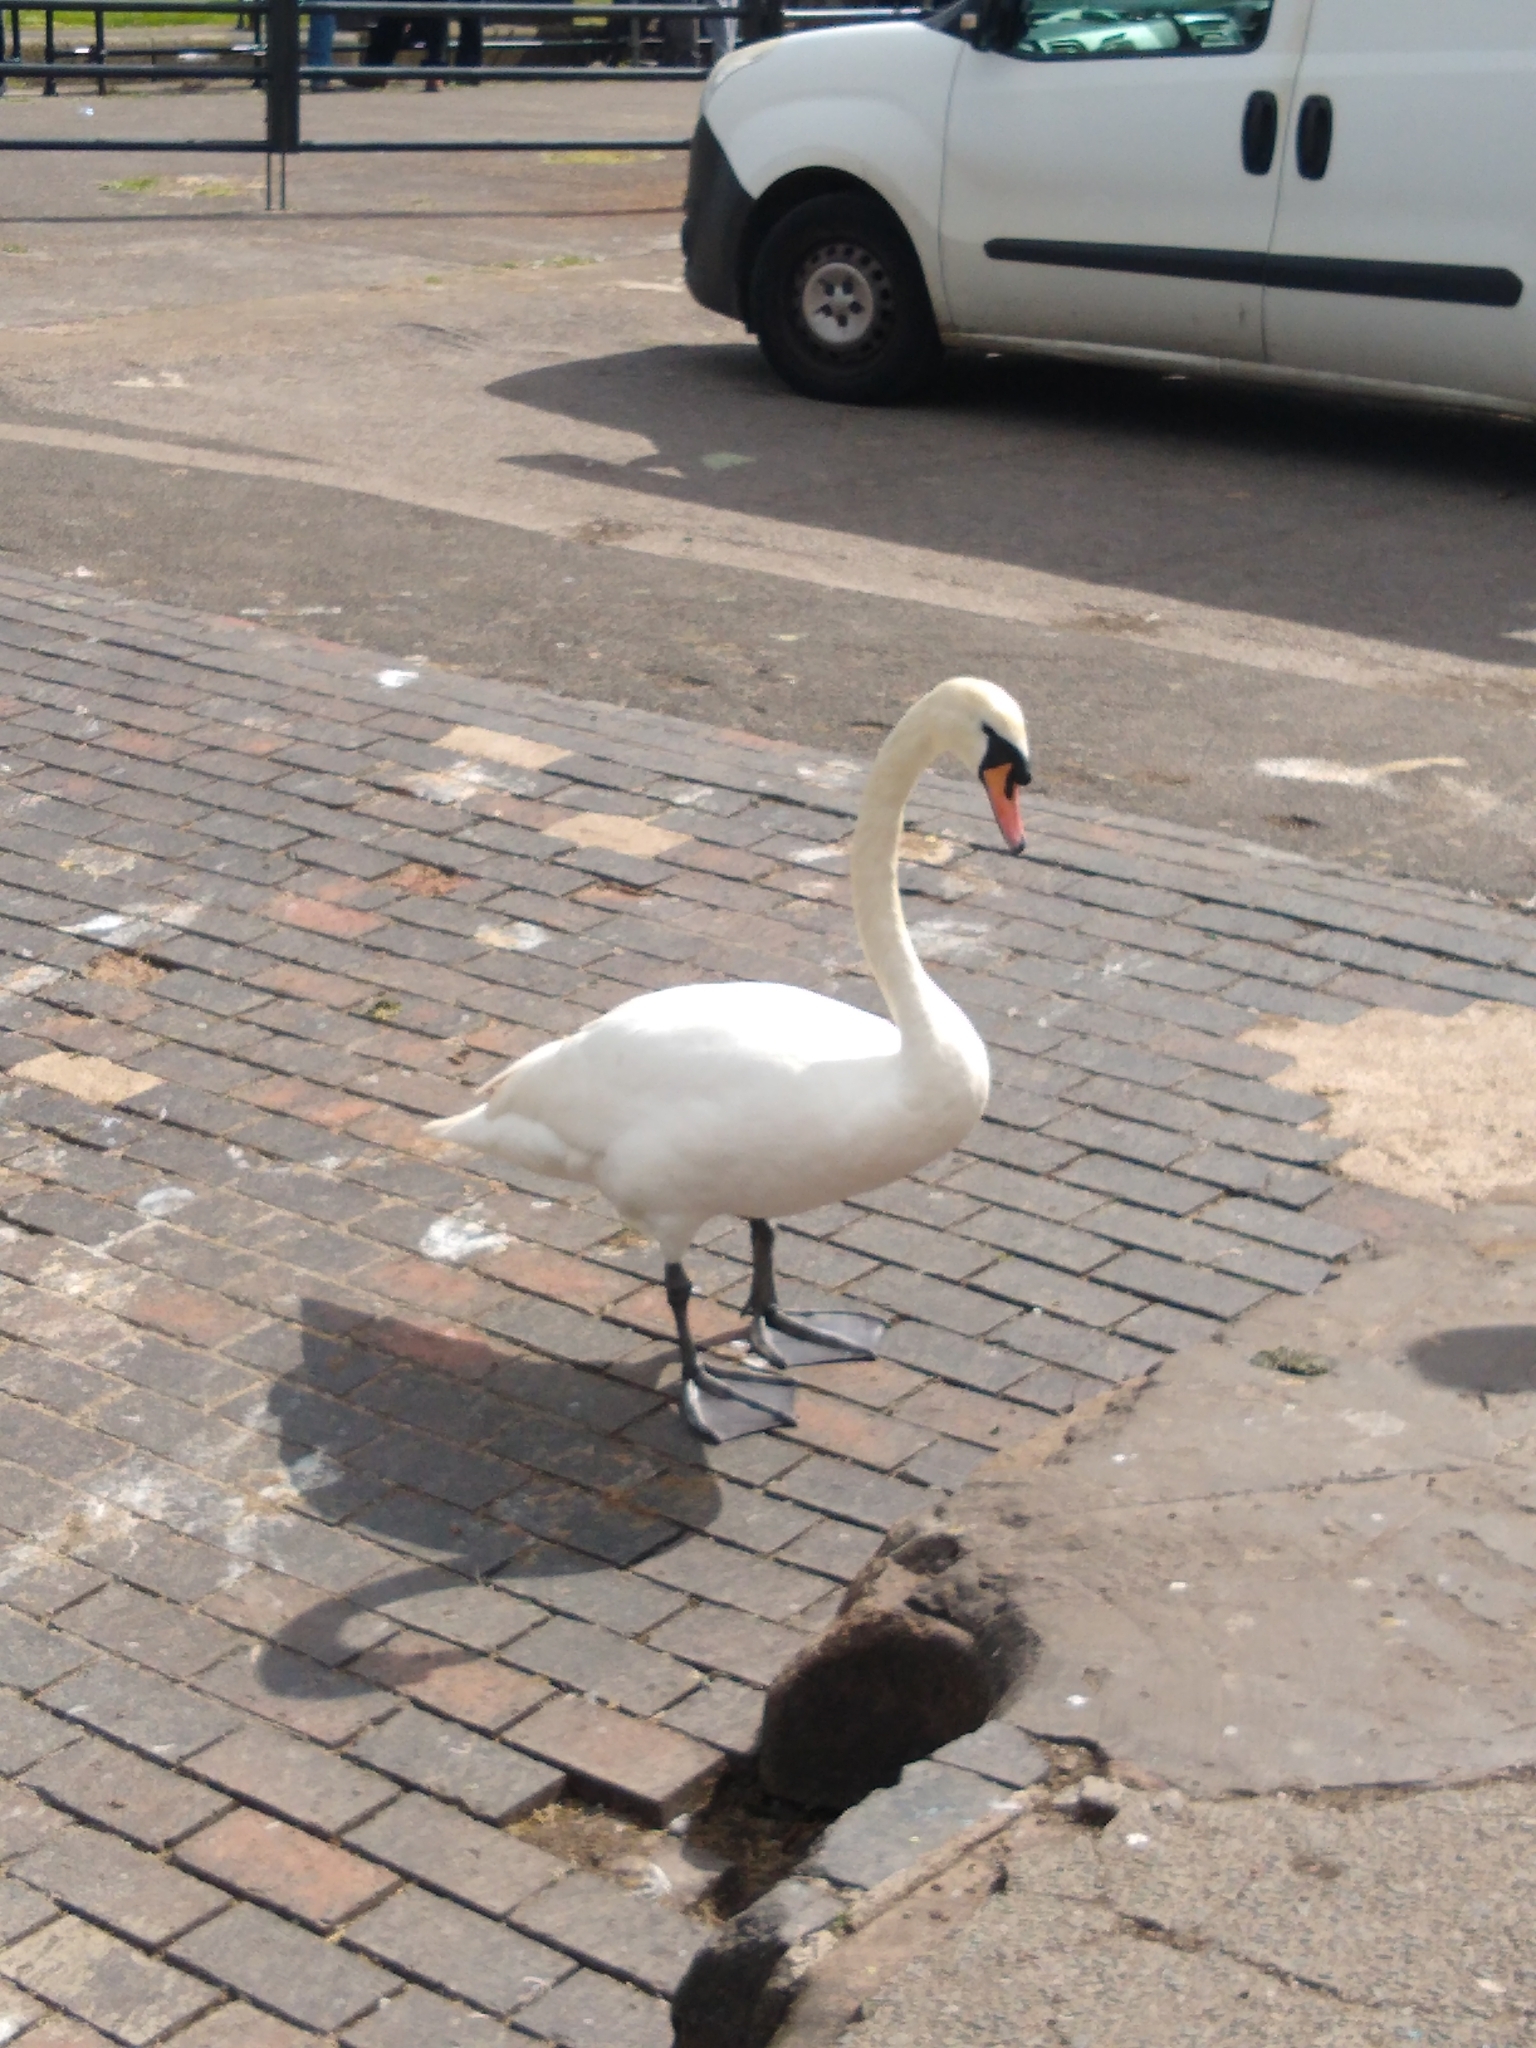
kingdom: Animalia
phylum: Chordata
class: Aves
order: Anseriformes
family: Anatidae
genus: Cygnus
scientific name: Cygnus olor
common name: Mute swan
